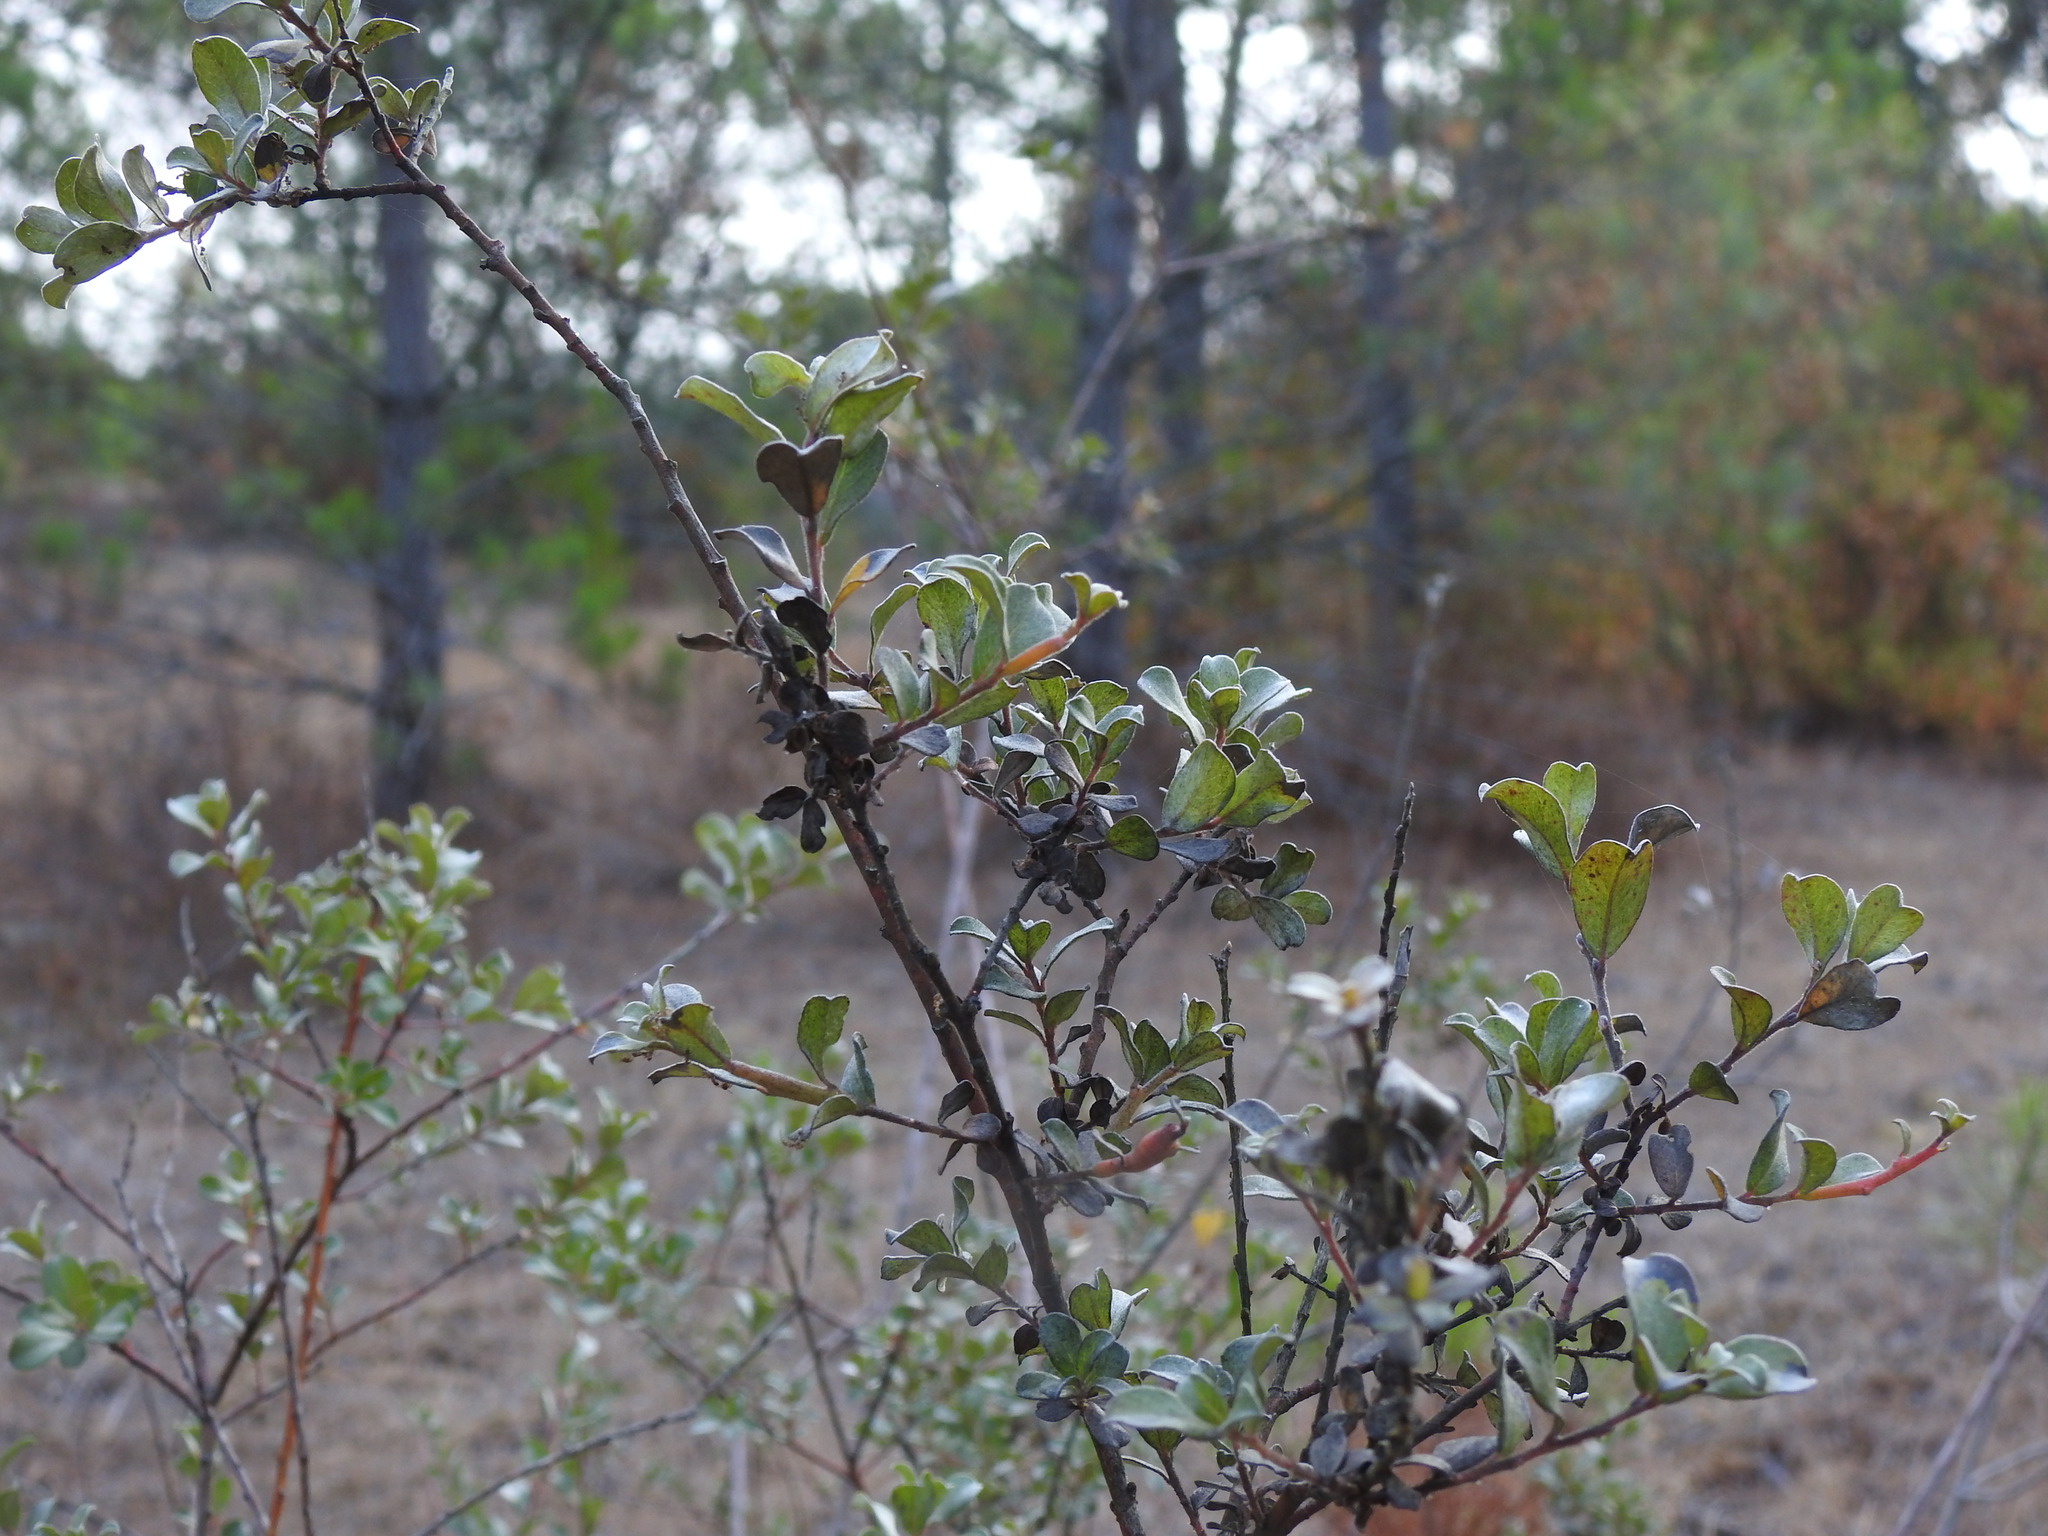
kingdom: Plantae
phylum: Tracheophyta
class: Magnoliopsida
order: Malpighiales
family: Salicaceae
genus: Salix
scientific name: Salix repens
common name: Creeping willow
